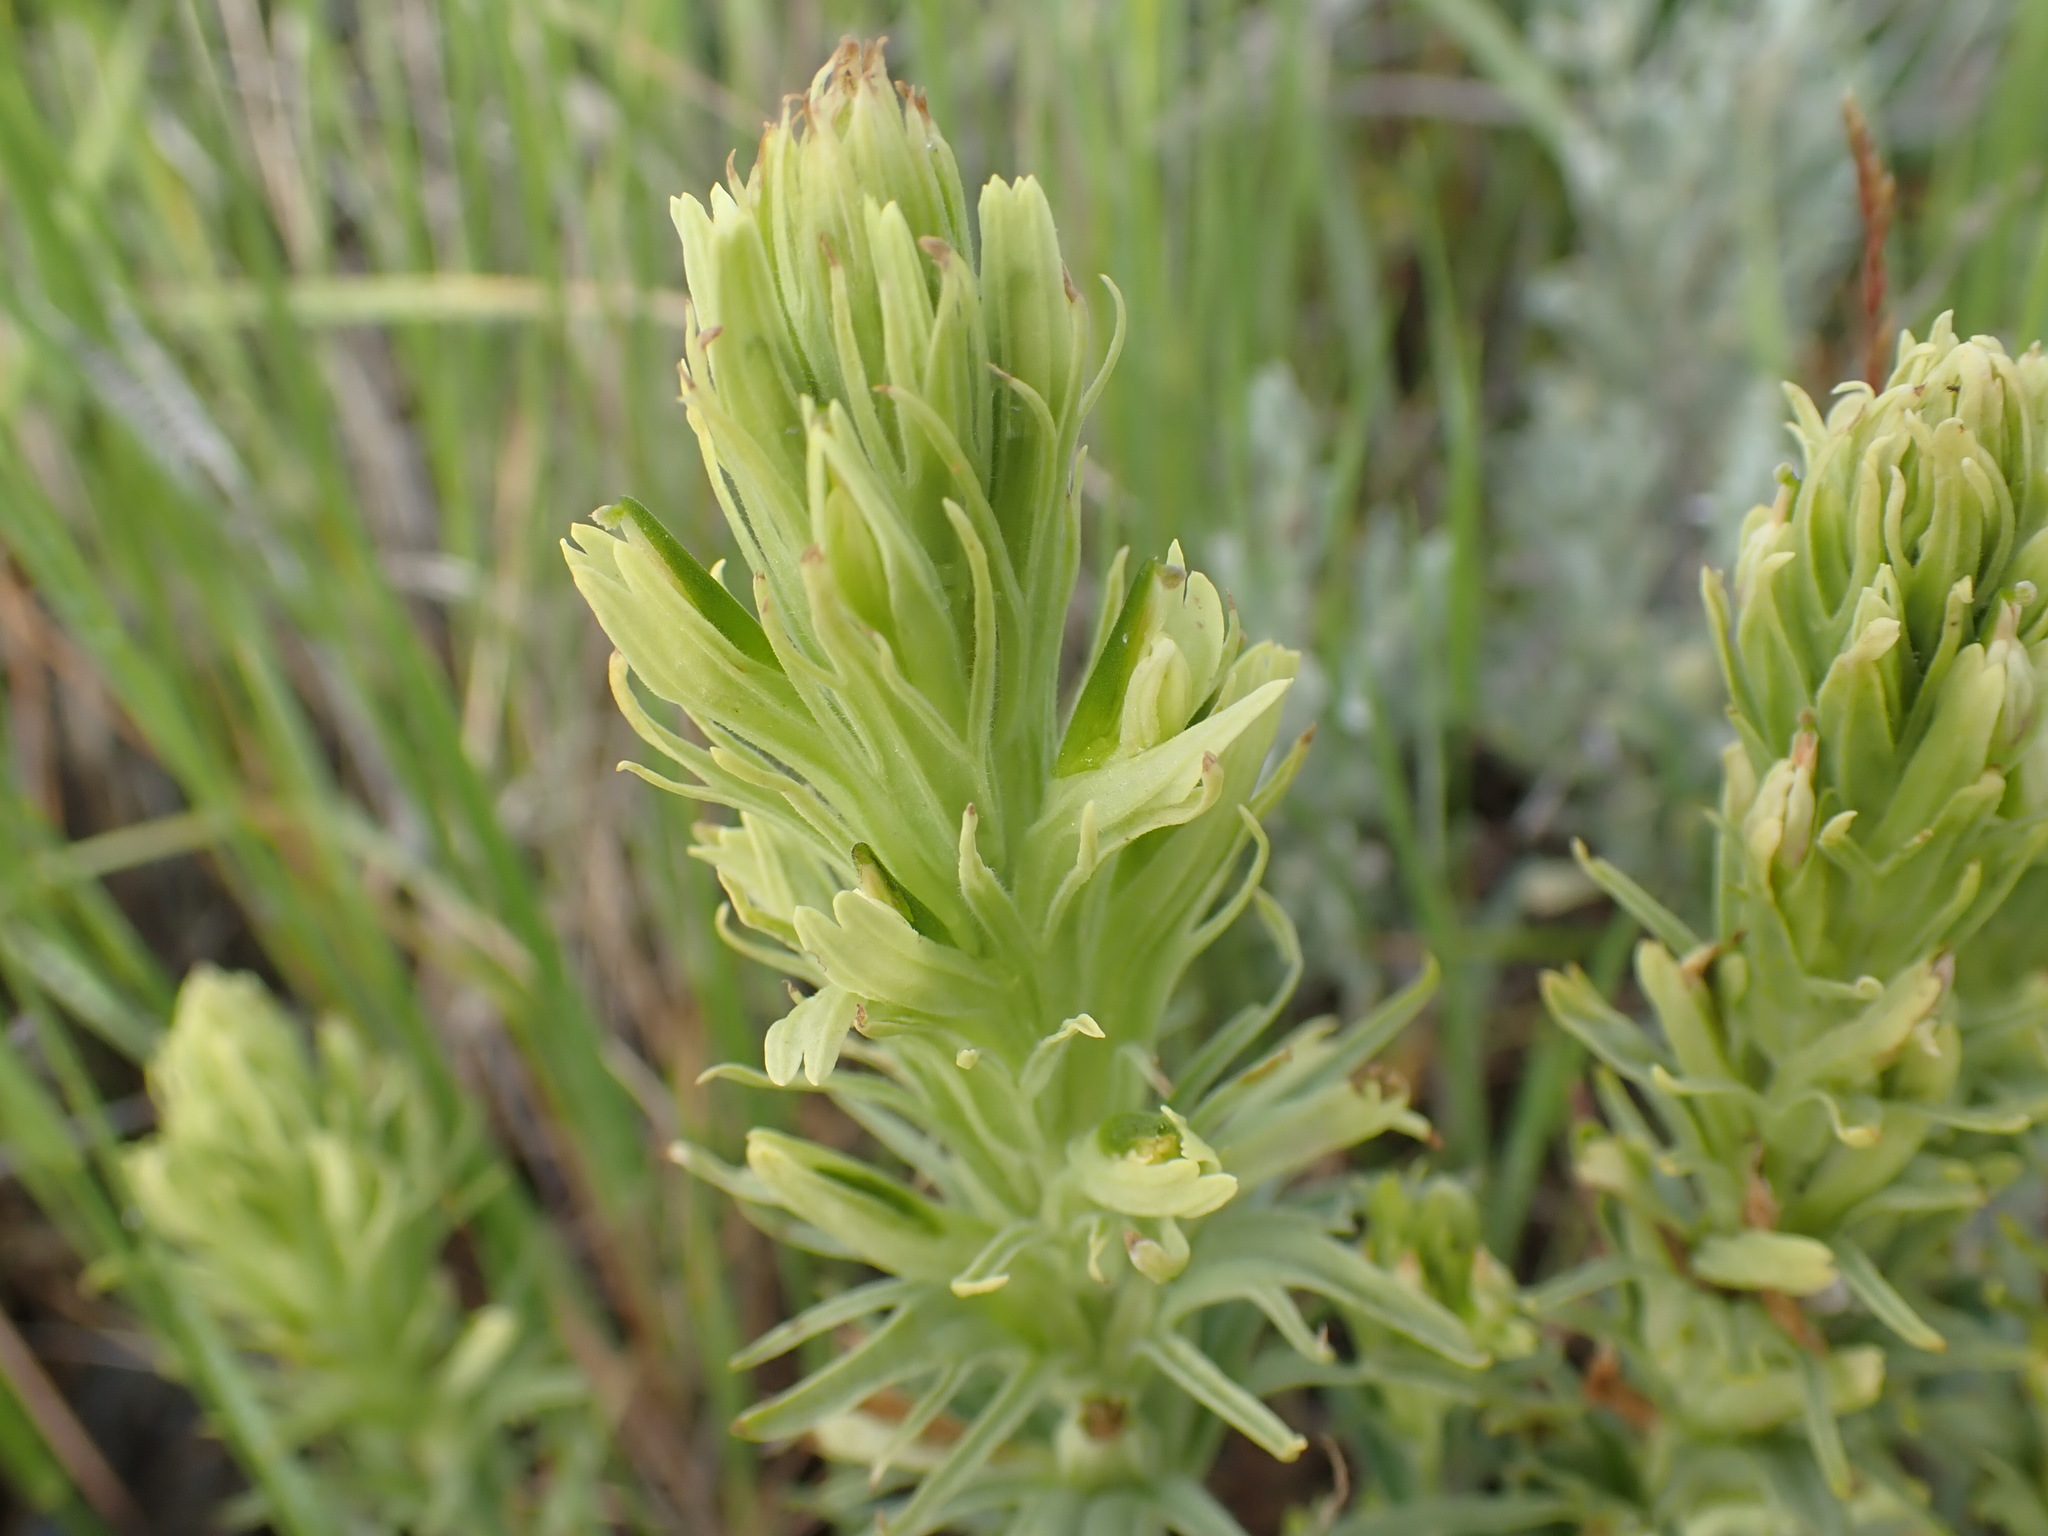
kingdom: Plantae
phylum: Tracheophyta
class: Magnoliopsida
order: Lamiales
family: Orobanchaceae
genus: Castilleja
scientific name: Castilleja thompsonii
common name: Thompson's paintbrush
